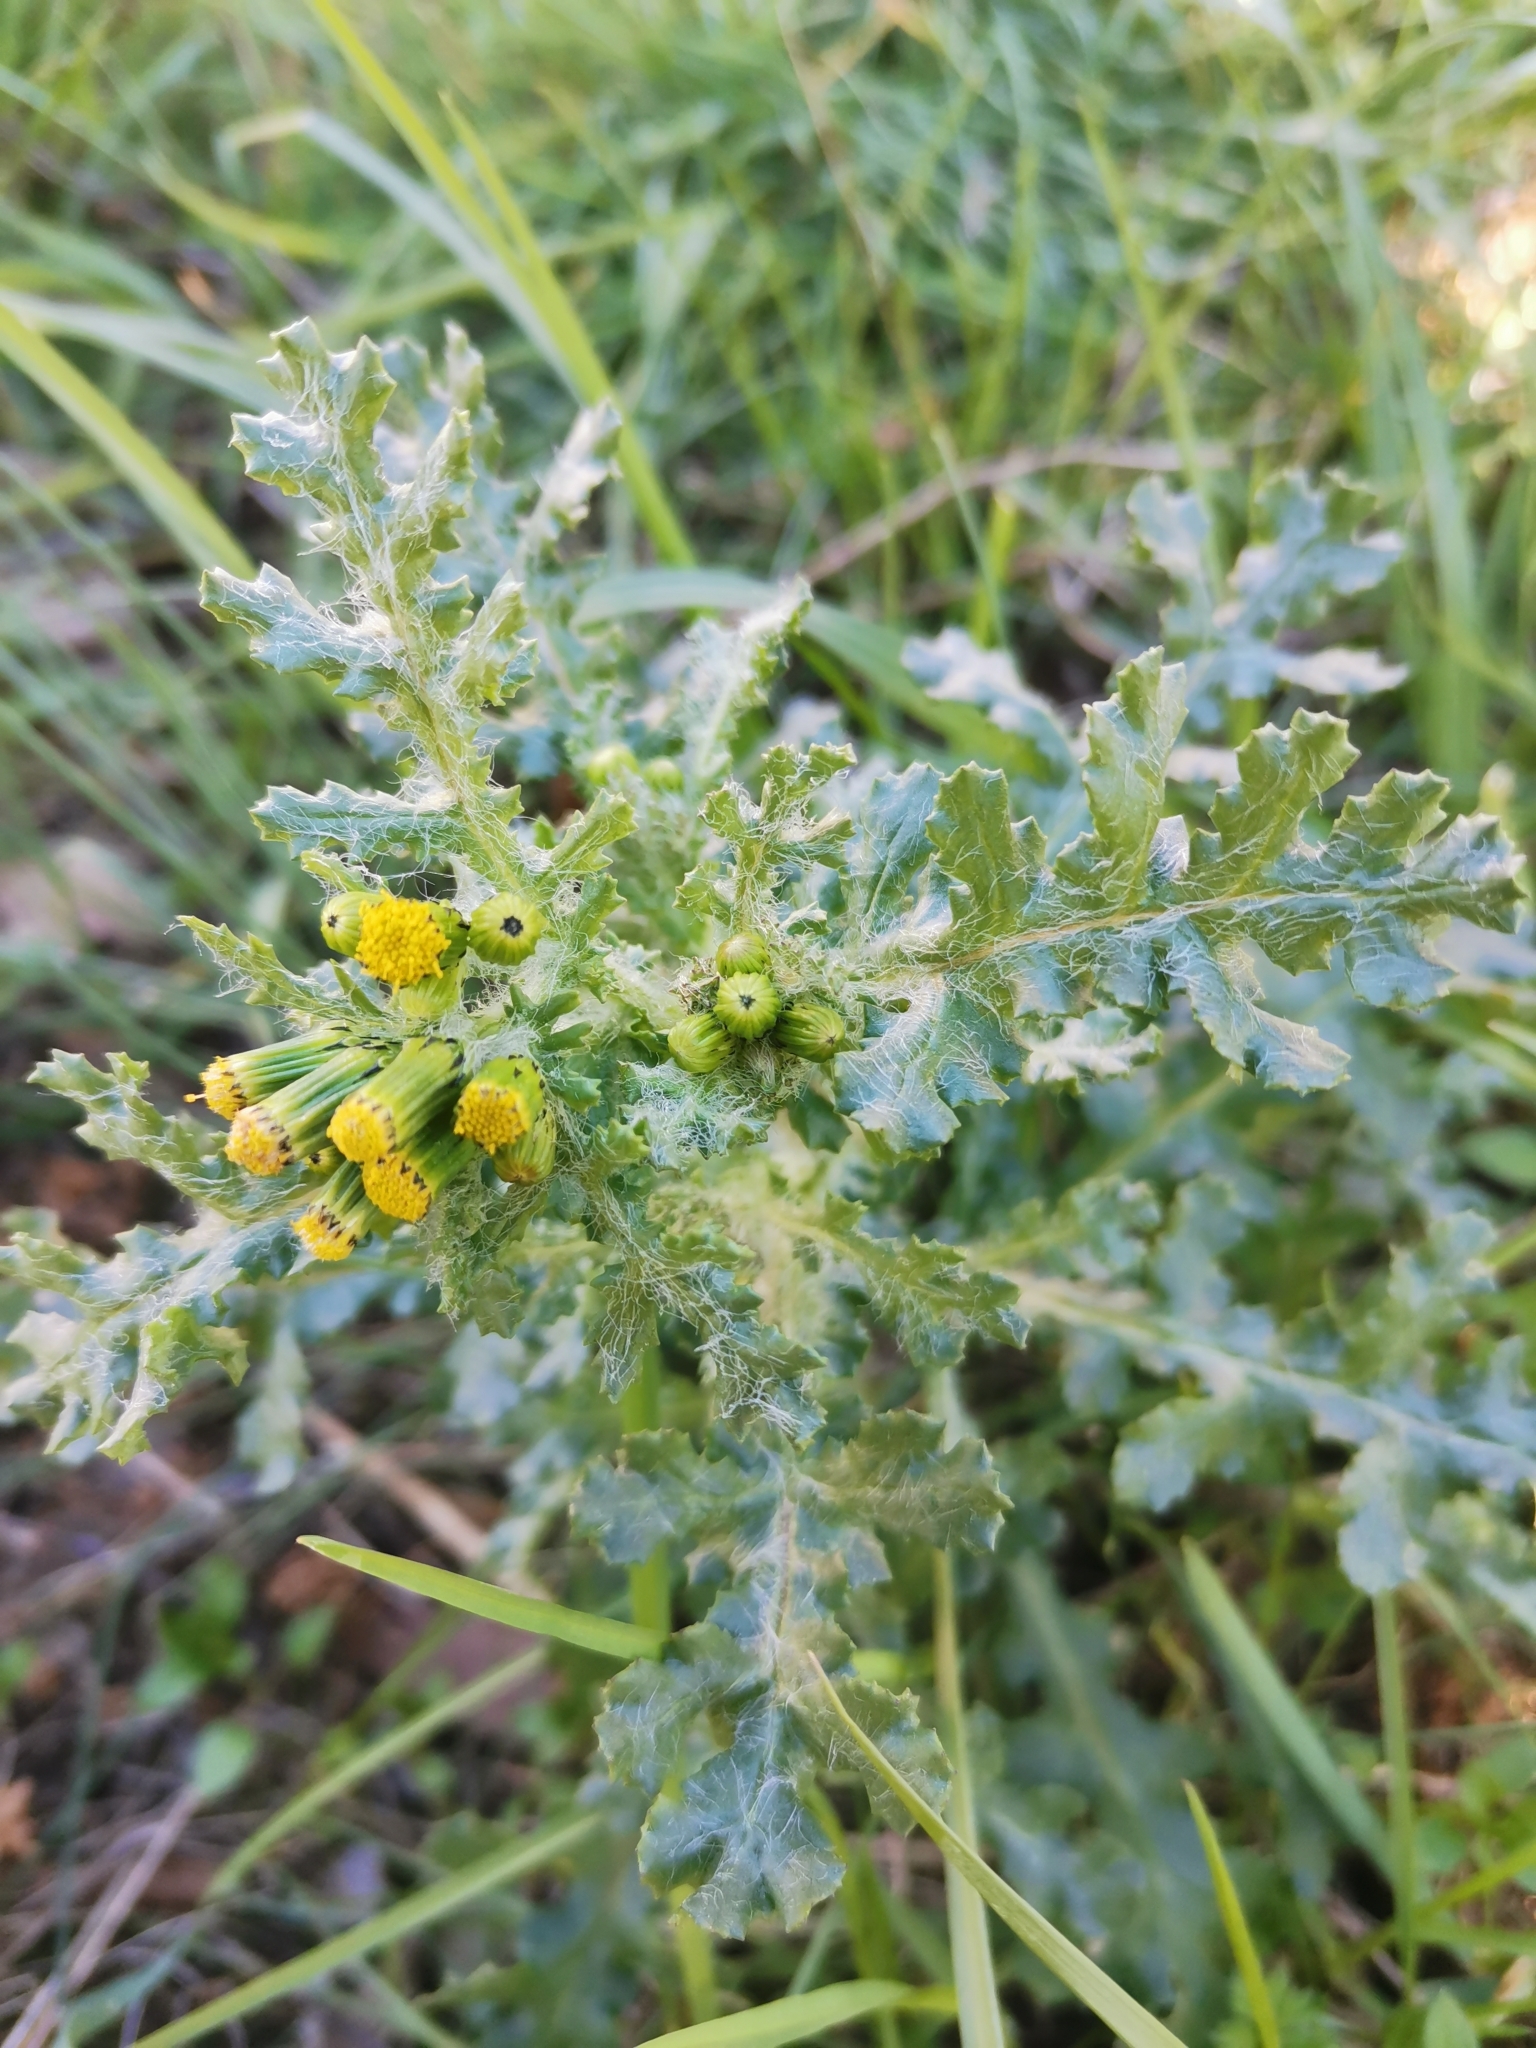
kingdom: Plantae
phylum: Tracheophyta
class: Magnoliopsida
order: Asterales
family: Asteraceae
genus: Senecio
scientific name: Senecio vulgaris
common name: Old-man-in-the-spring
